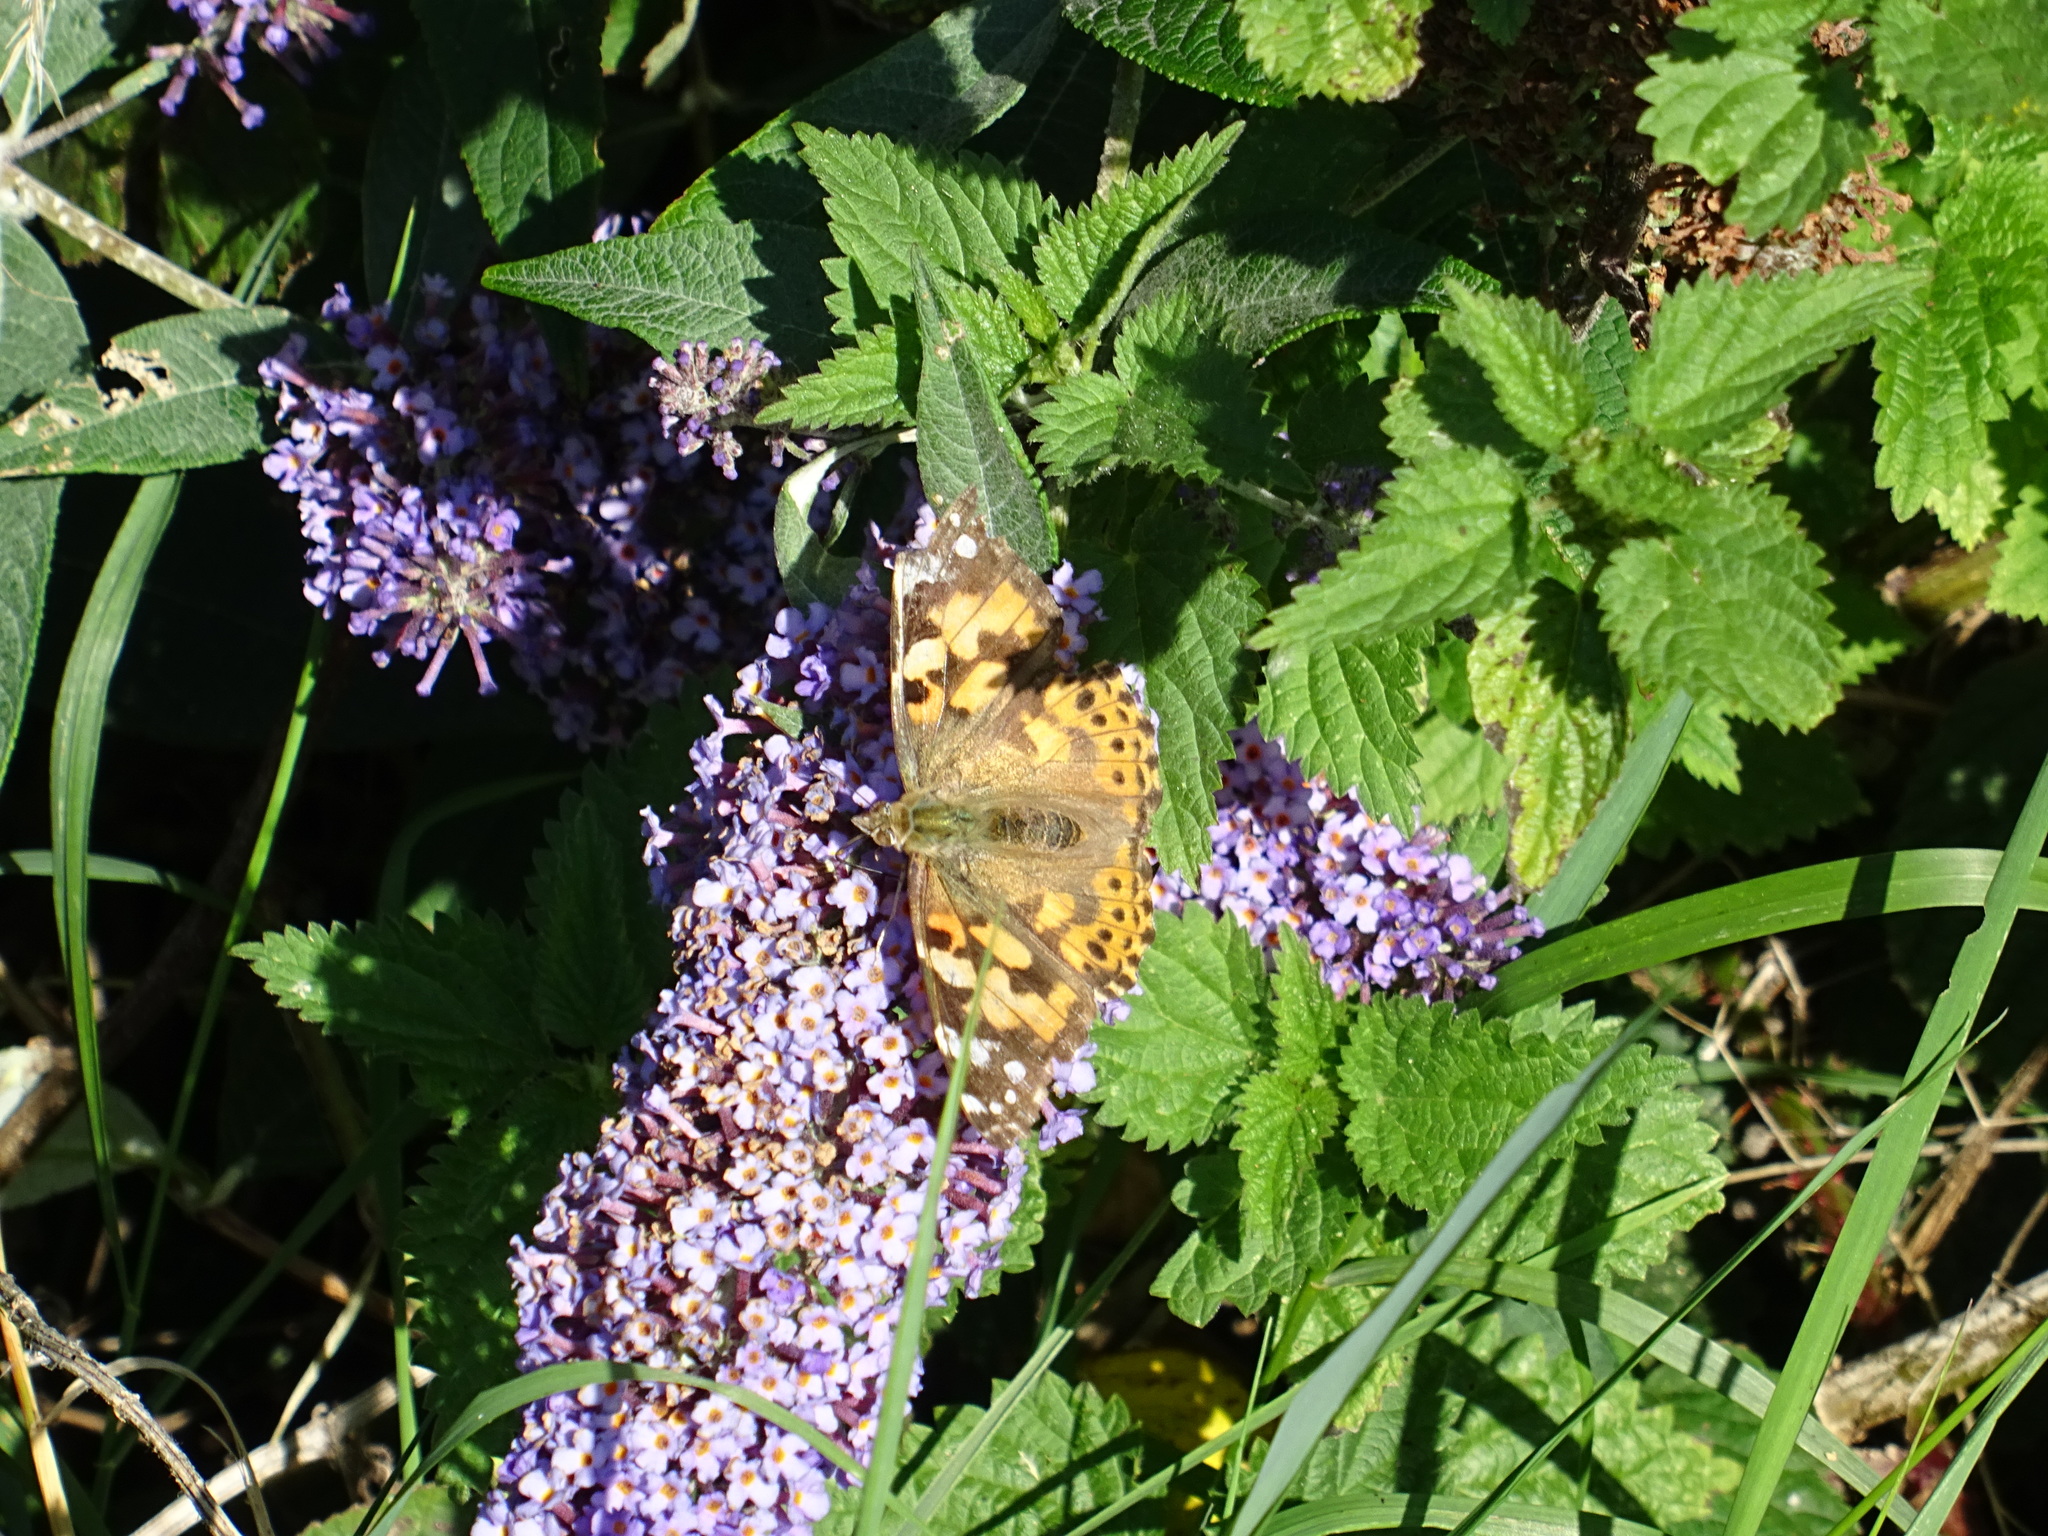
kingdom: Animalia
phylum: Arthropoda
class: Insecta
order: Lepidoptera
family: Nymphalidae
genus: Vanessa
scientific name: Vanessa cardui
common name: Painted lady
